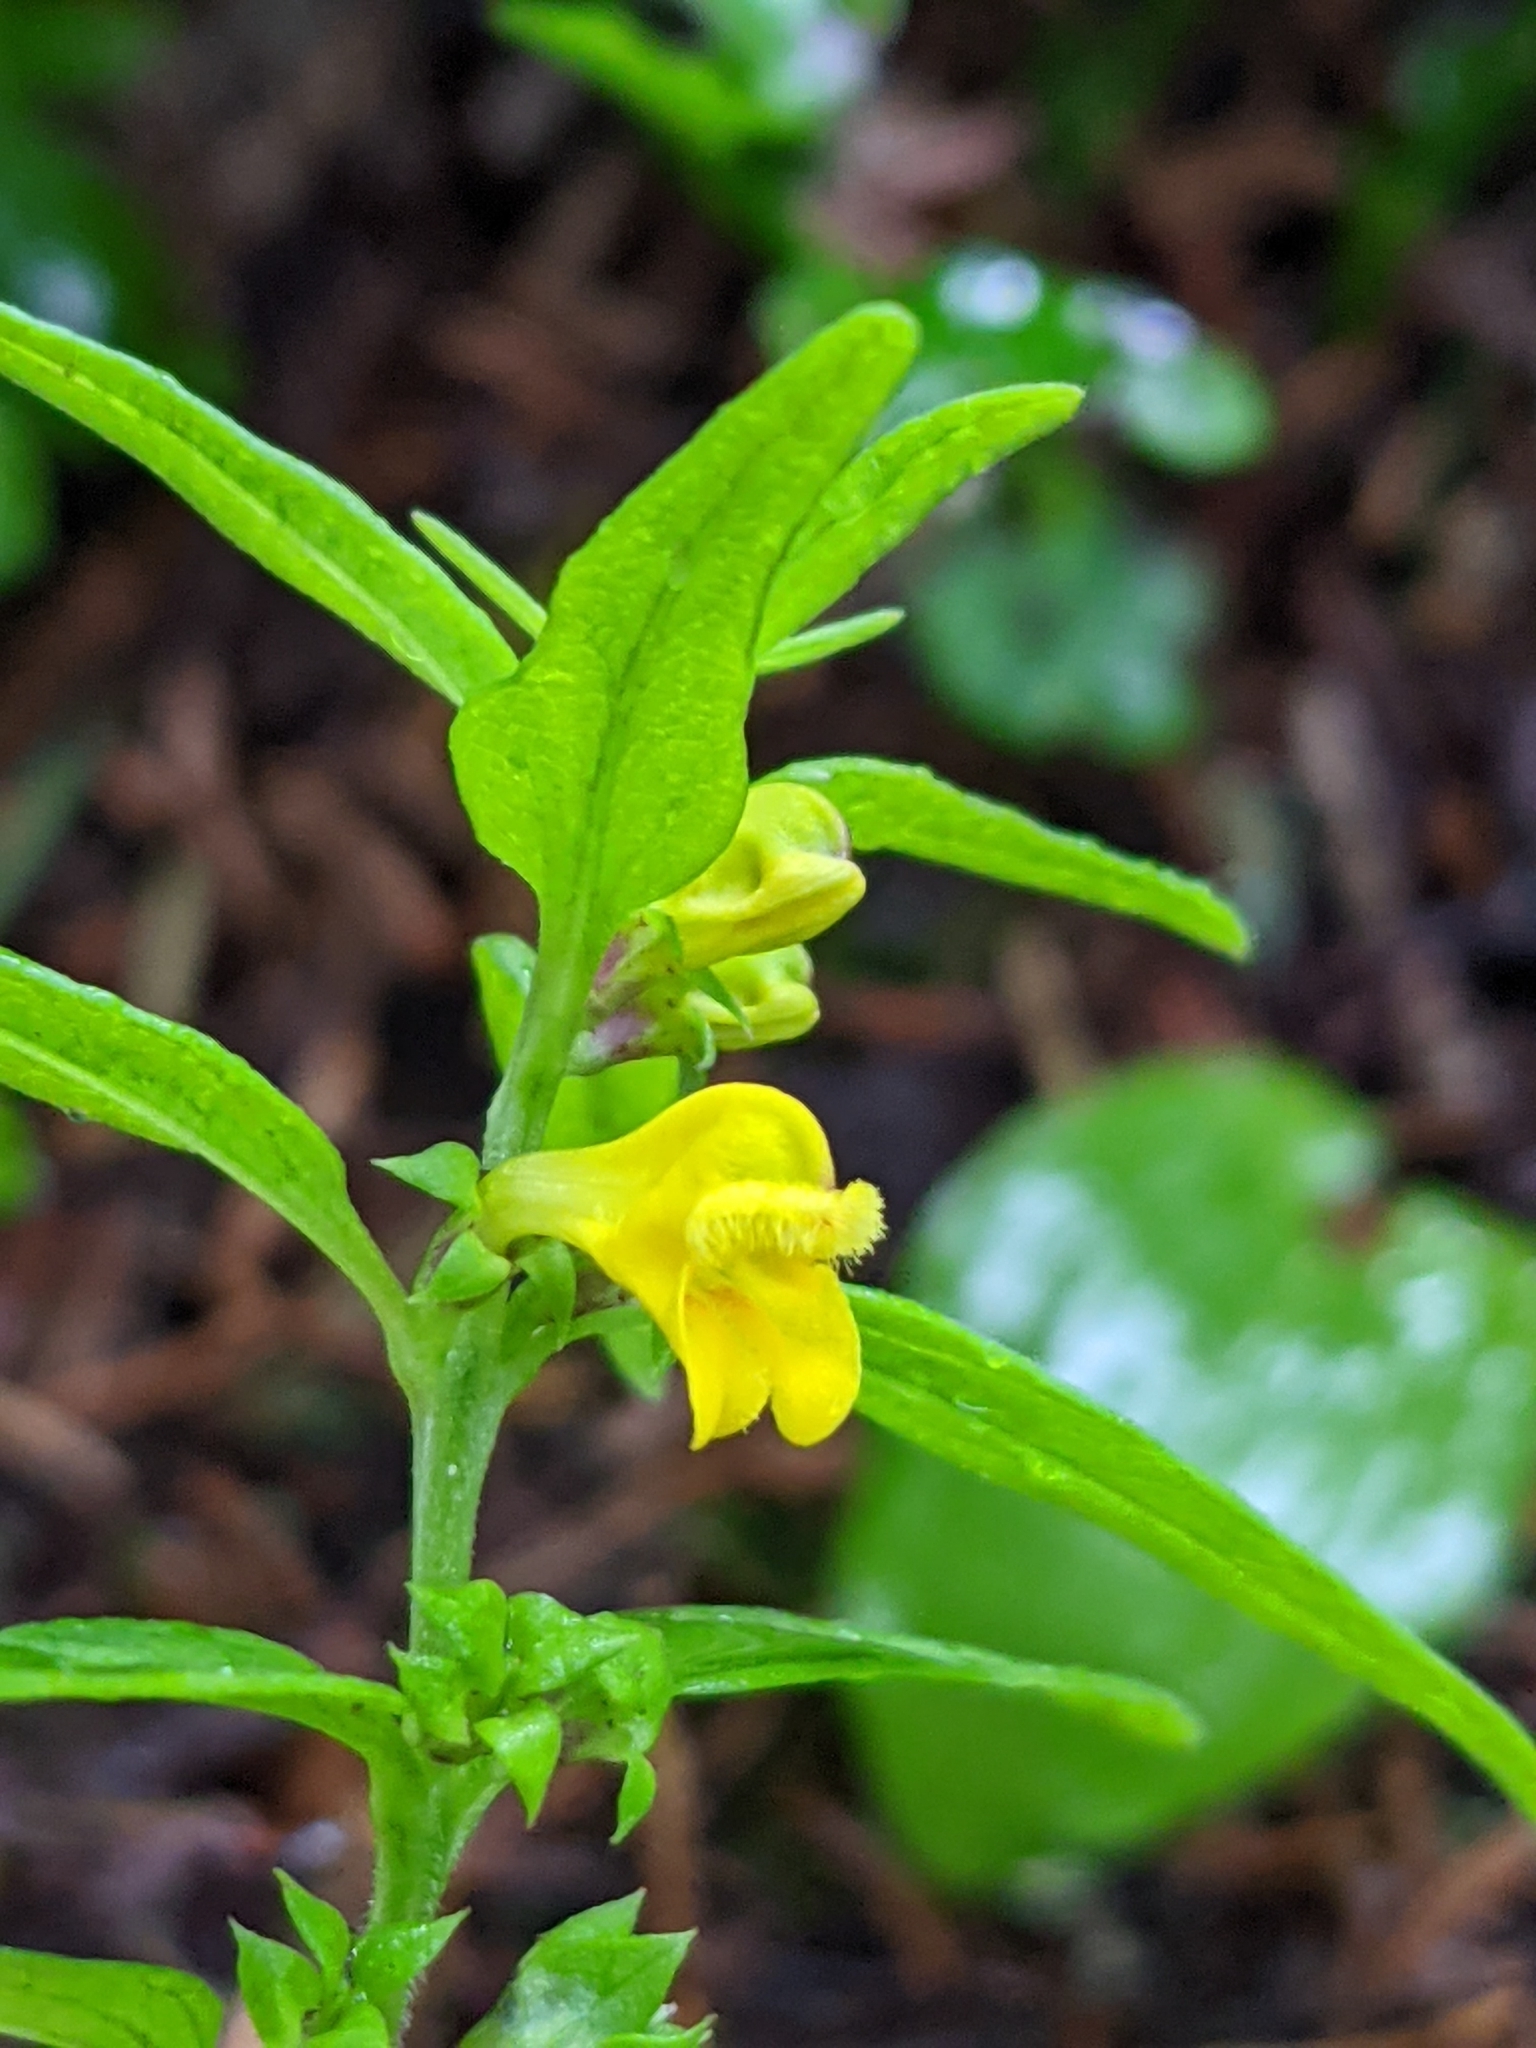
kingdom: Plantae
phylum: Tracheophyta
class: Magnoliopsida
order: Lamiales
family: Orobanchaceae
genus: Melampyrum
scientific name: Melampyrum sylvaticum
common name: Small cow-wheat
